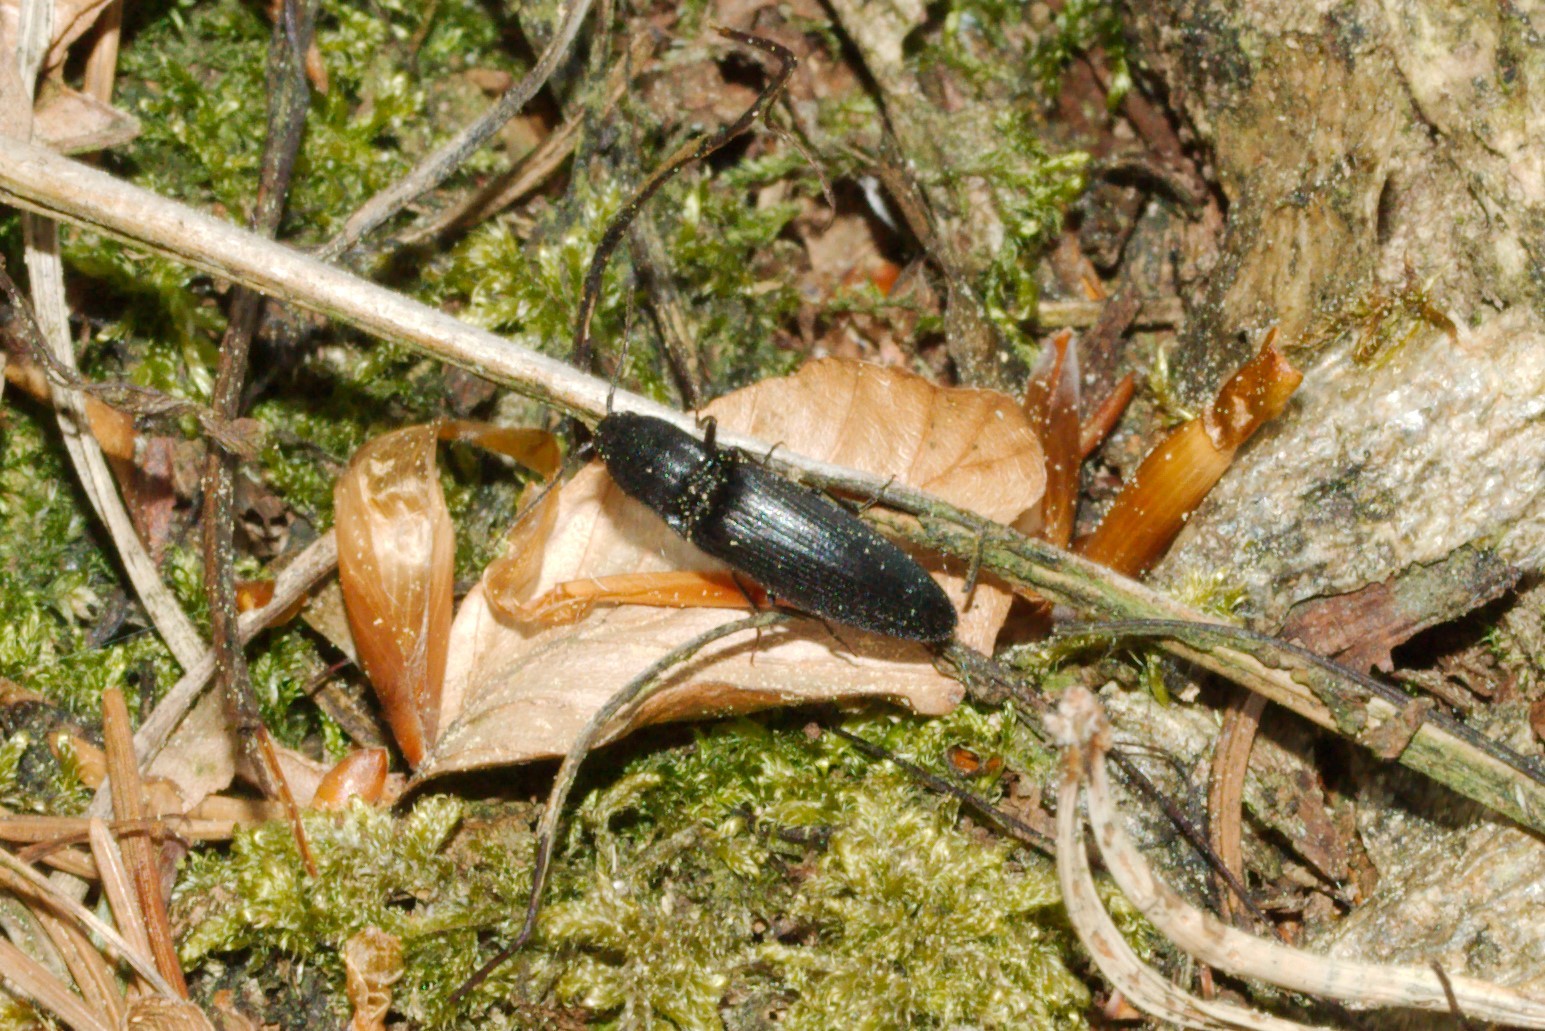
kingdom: Animalia
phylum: Arthropoda
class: Insecta
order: Coleoptera
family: Elateridae
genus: Ectinus
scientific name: Ectinus aterrimus
